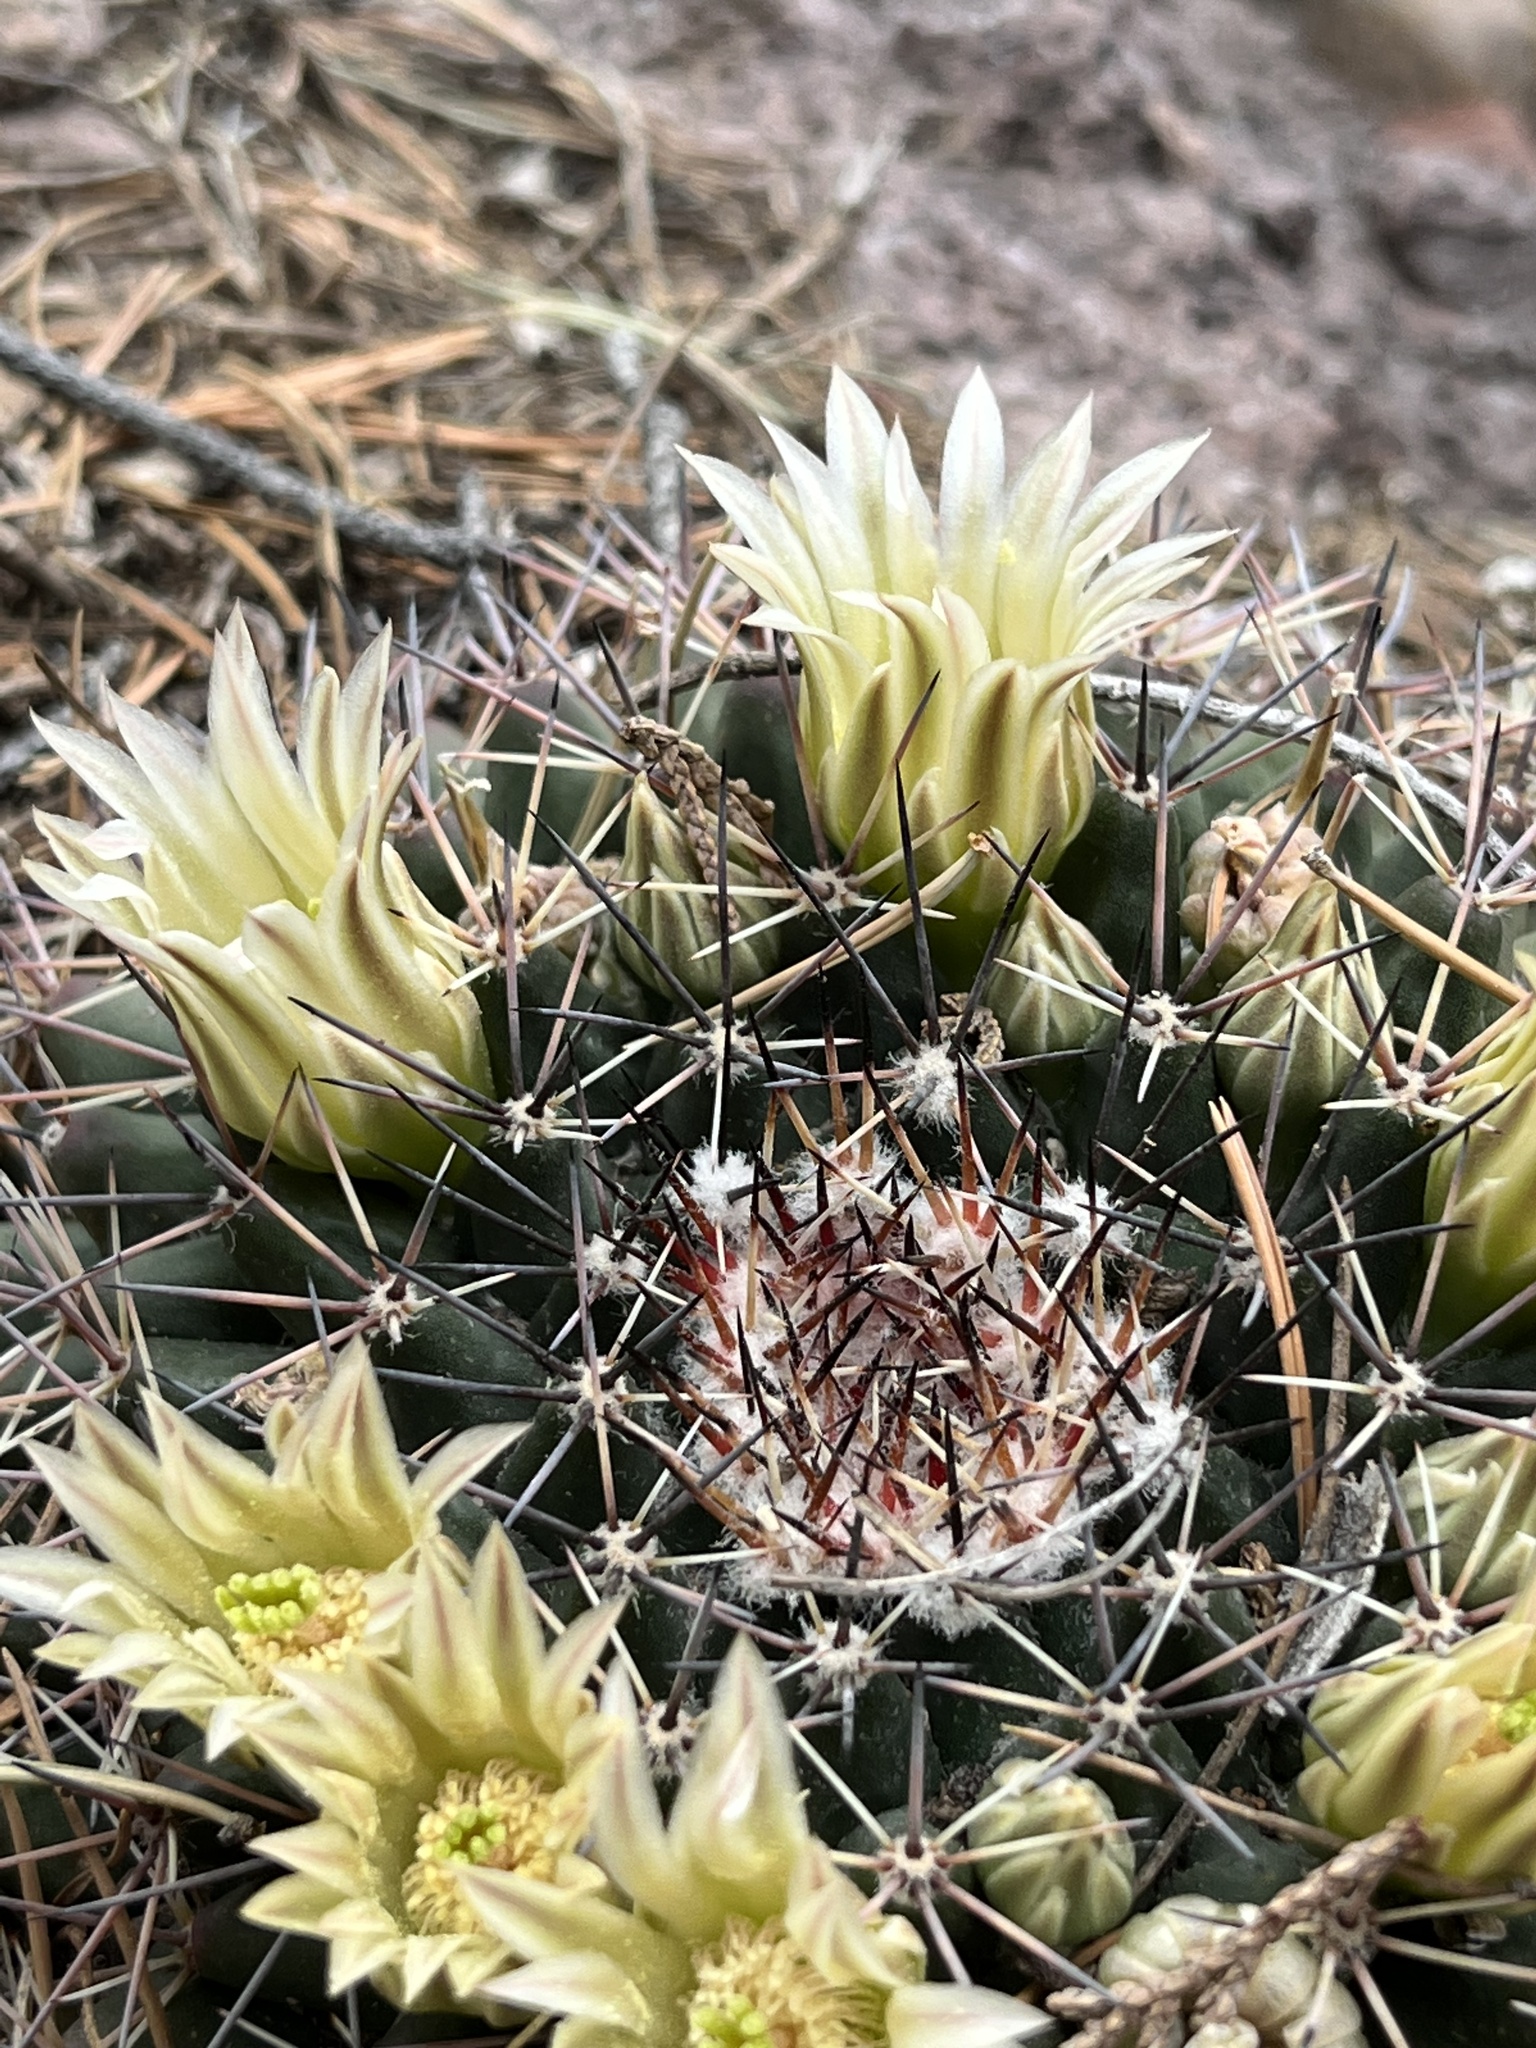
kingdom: Plantae
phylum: Tracheophyta
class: Magnoliopsida
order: Caryophyllales
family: Cactaceae
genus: Mammillaria
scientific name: Mammillaria heyderi
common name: Little nipple cactus
